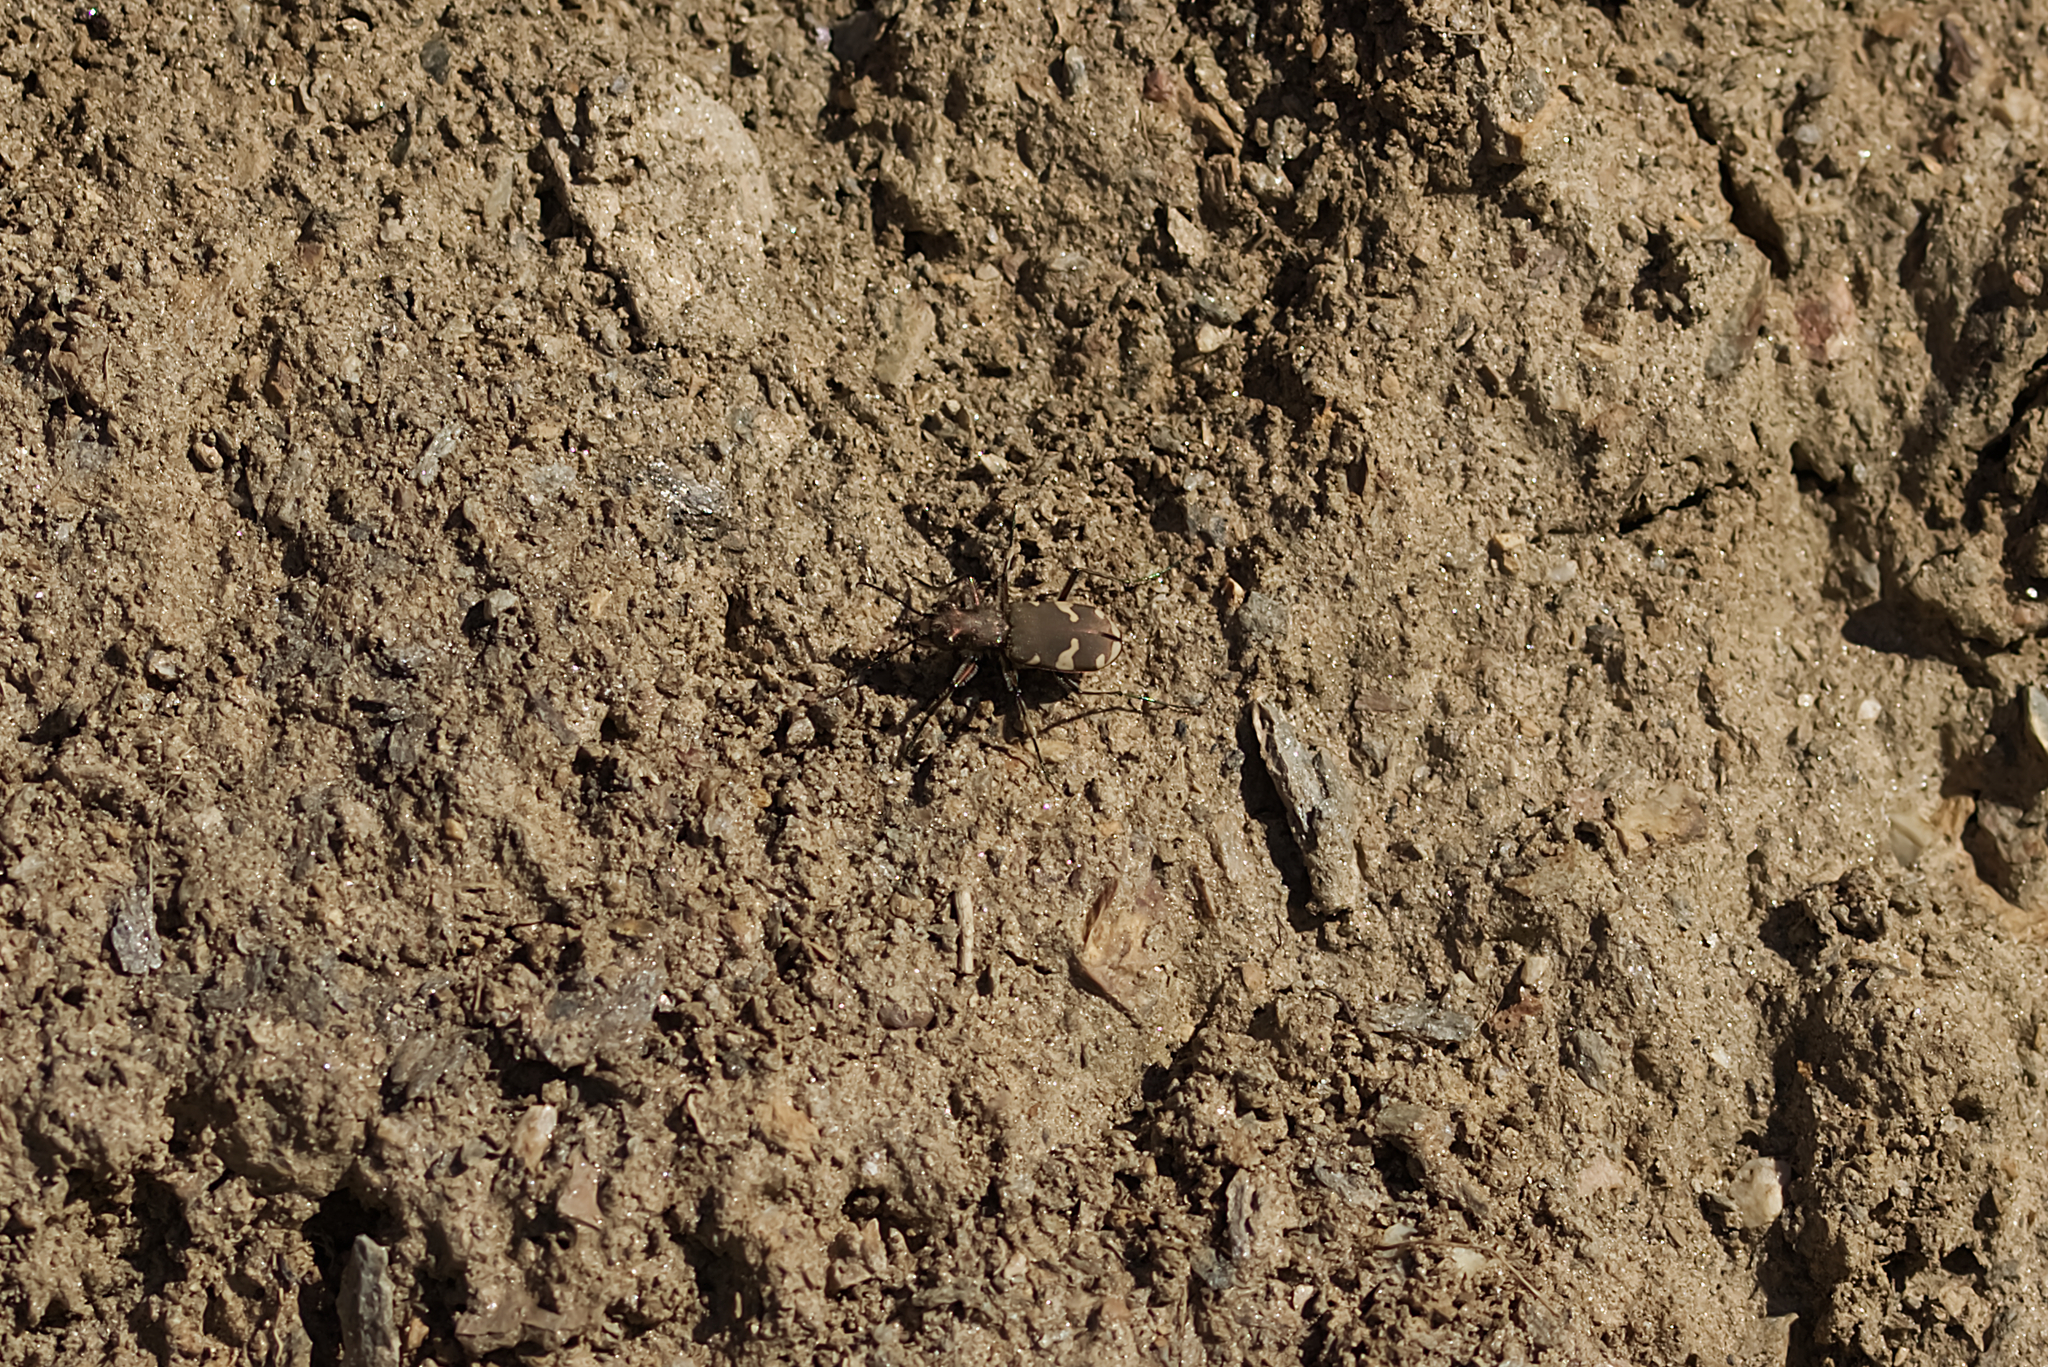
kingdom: Animalia
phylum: Arthropoda
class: Insecta
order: Coleoptera
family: Carabidae
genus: Cicindela
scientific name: Cicindela sylvicola
